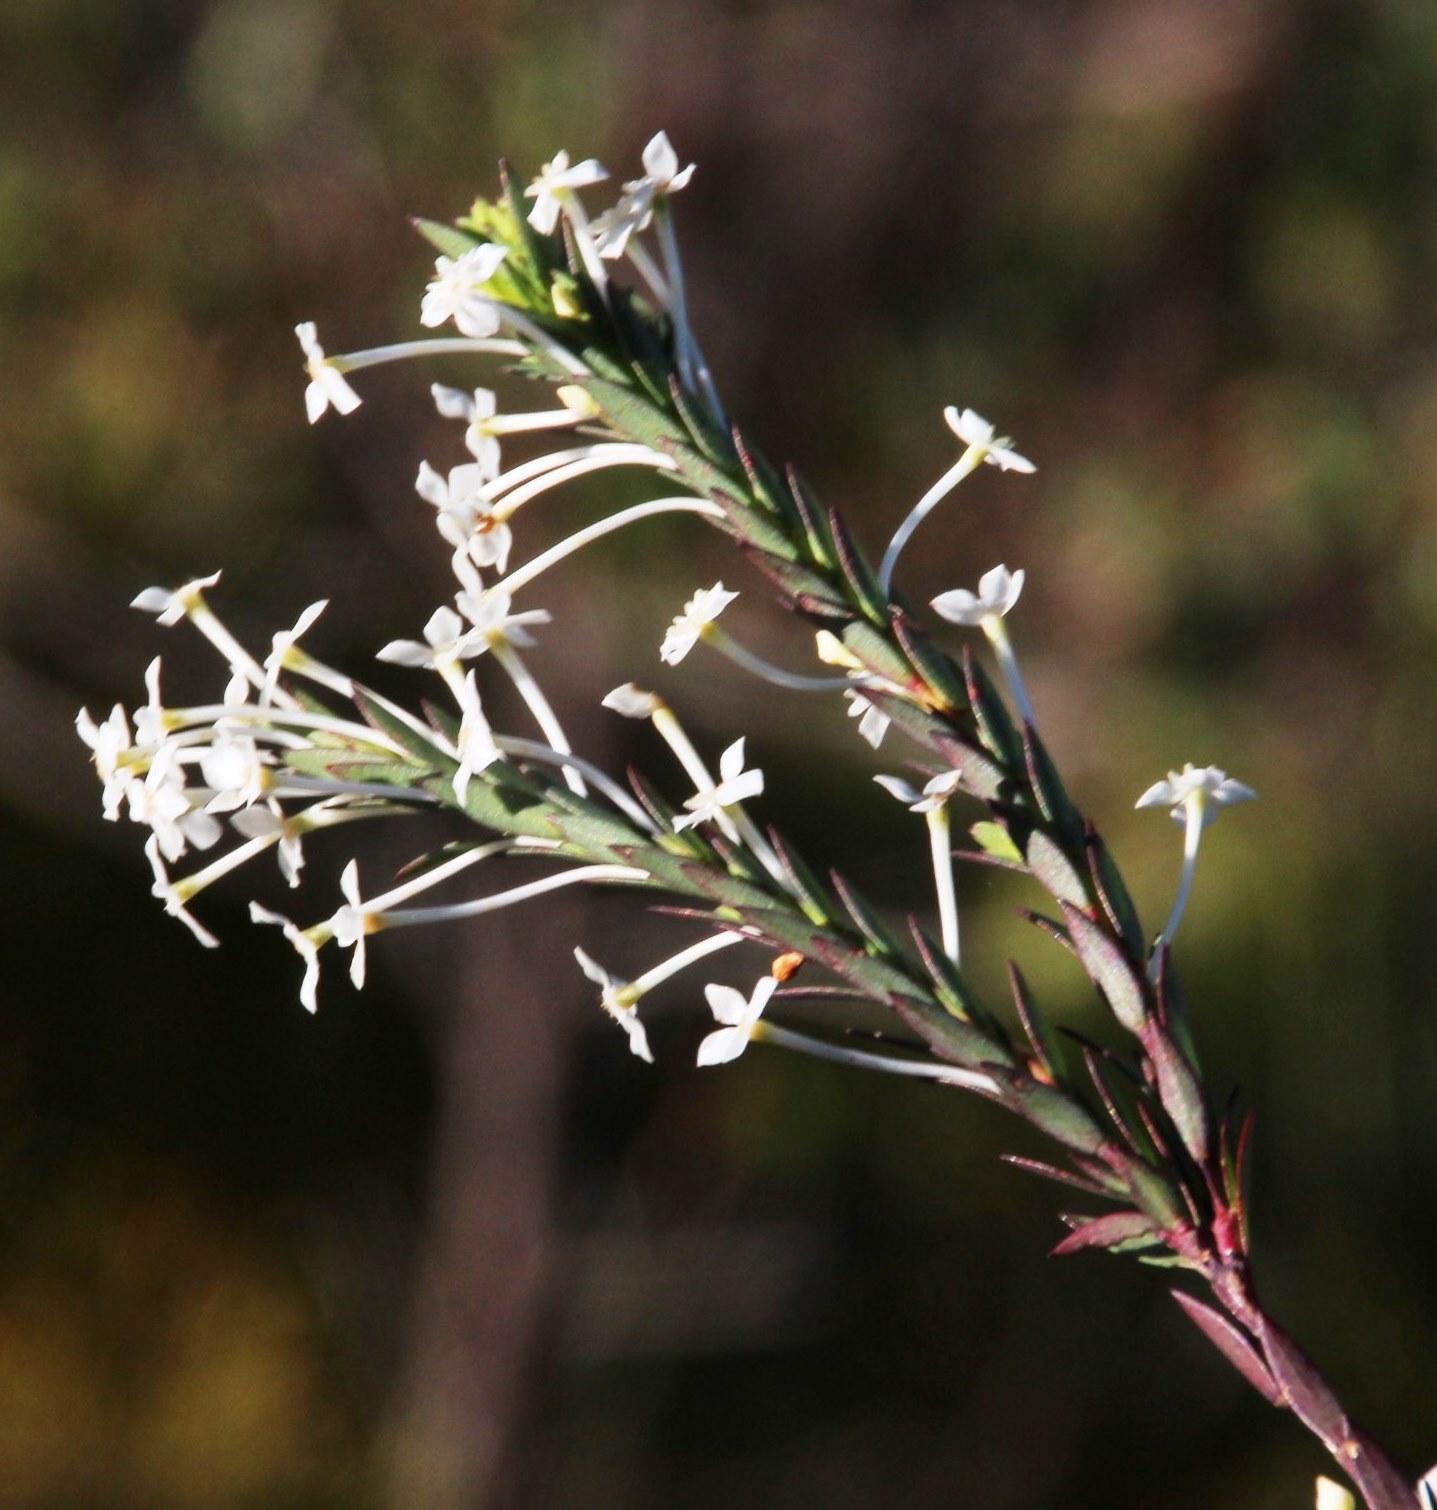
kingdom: Plantae
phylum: Tracheophyta
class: Magnoliopsida
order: Malvales
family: Thymelaeaceae
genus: Struthiola
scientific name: Struthiola ciliata
